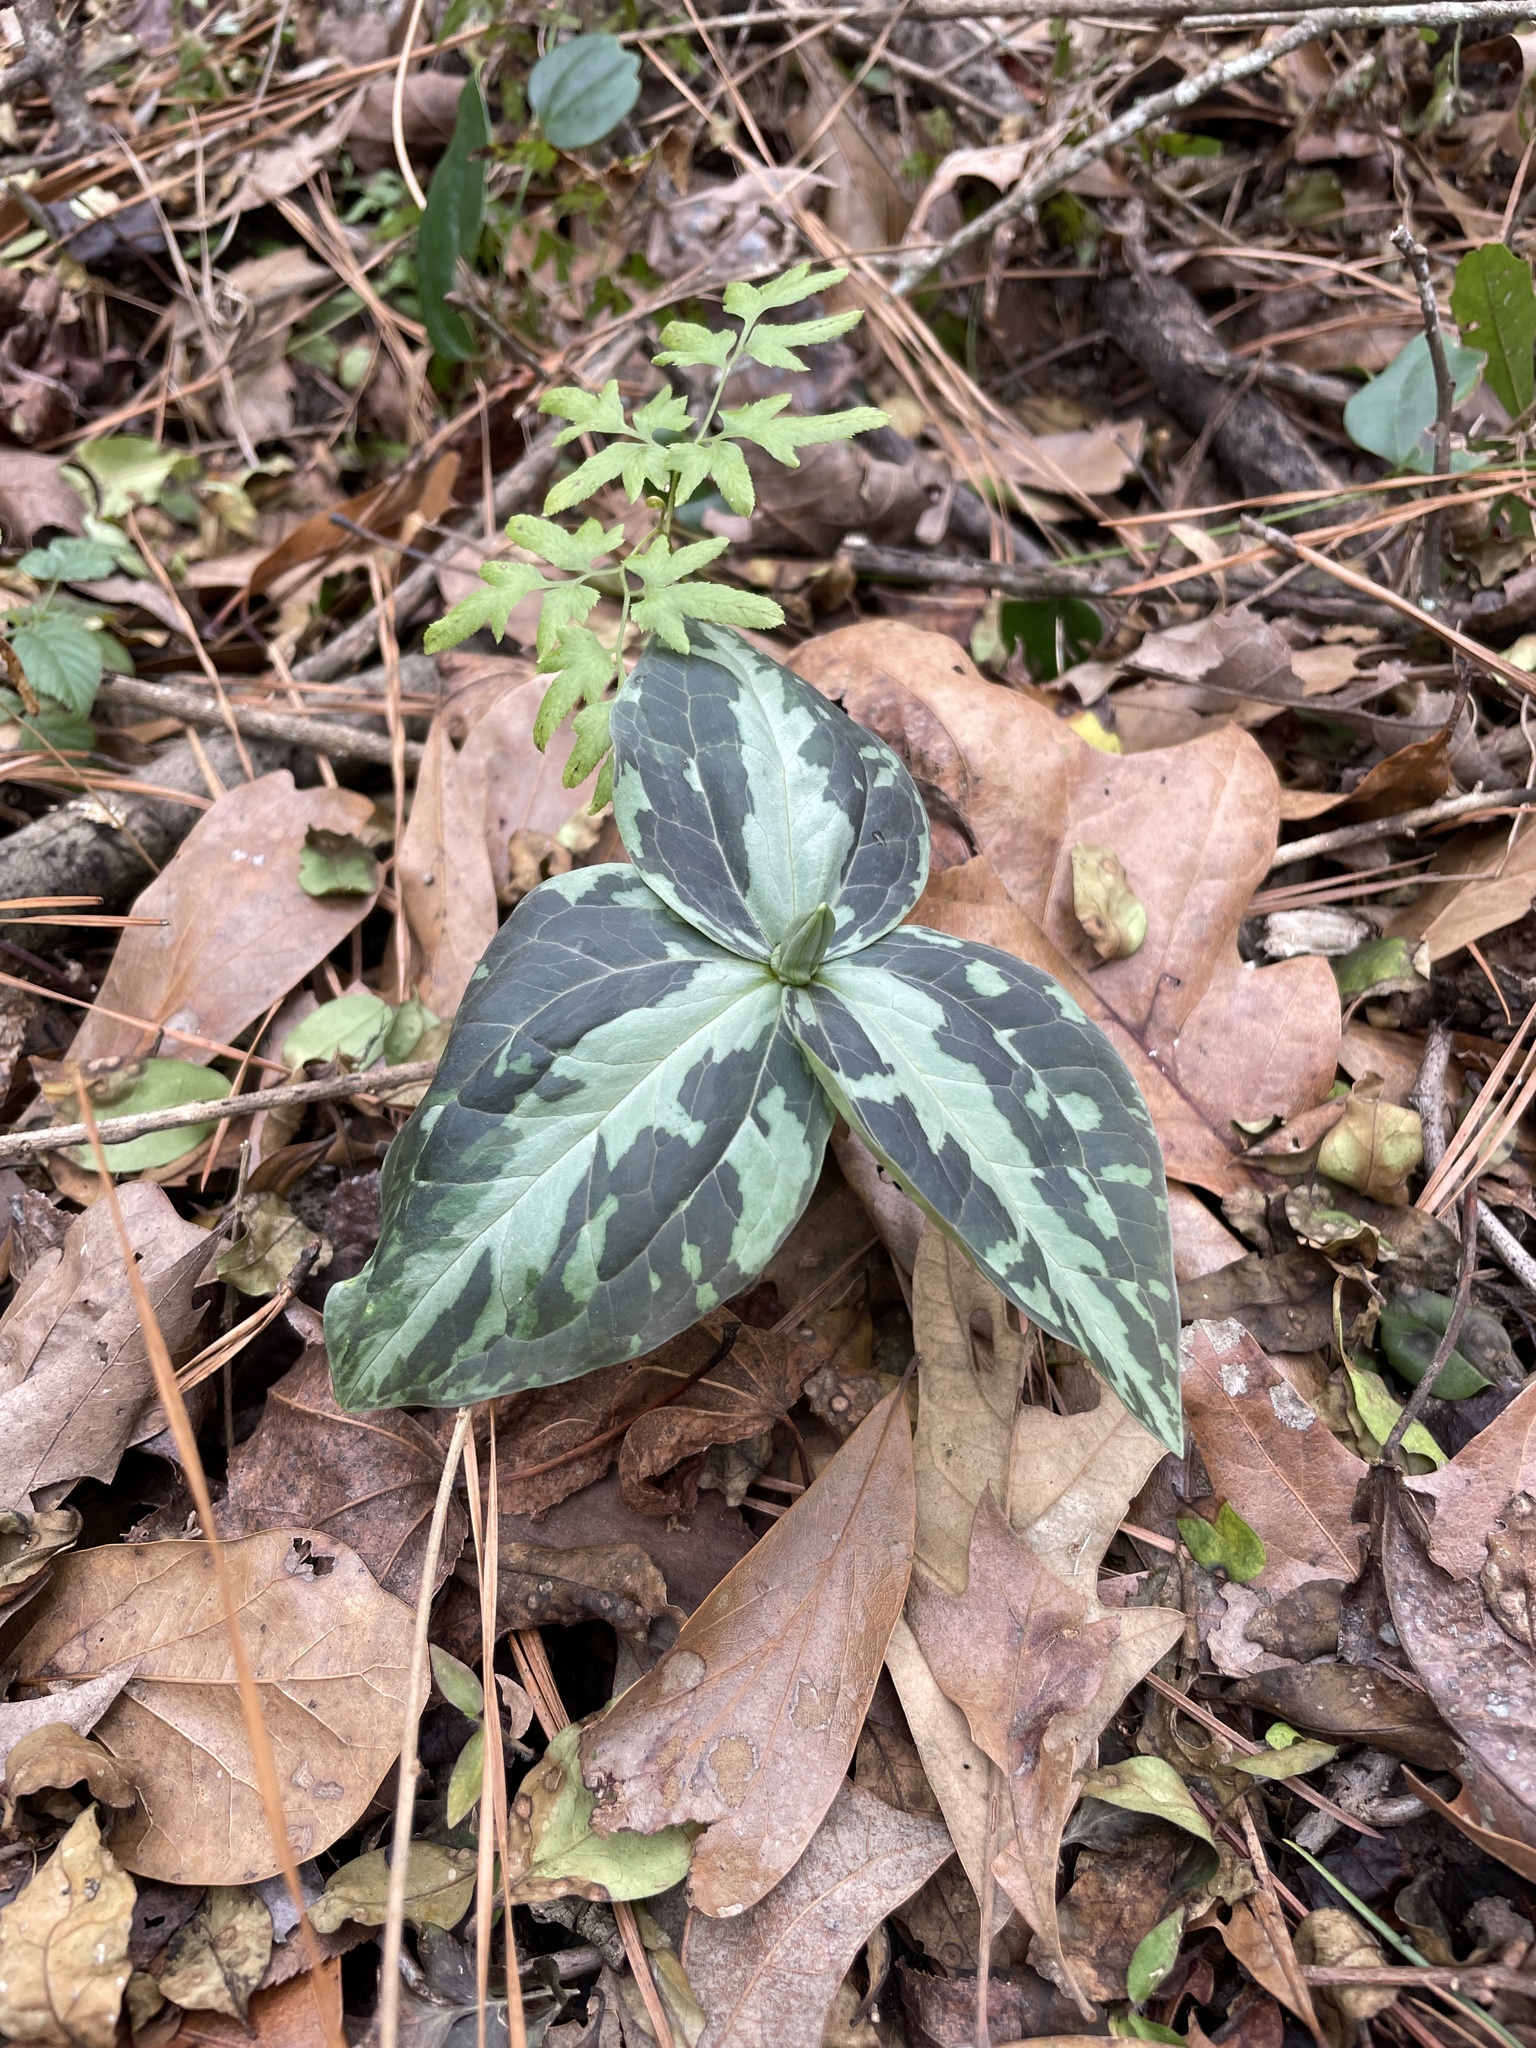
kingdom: Plantae
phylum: Tracheophyta
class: Liliopsida
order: Liliales
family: Melanthiaceae
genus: Trillium
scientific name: Trillium foetidissimum
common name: Mississippi river trillium
